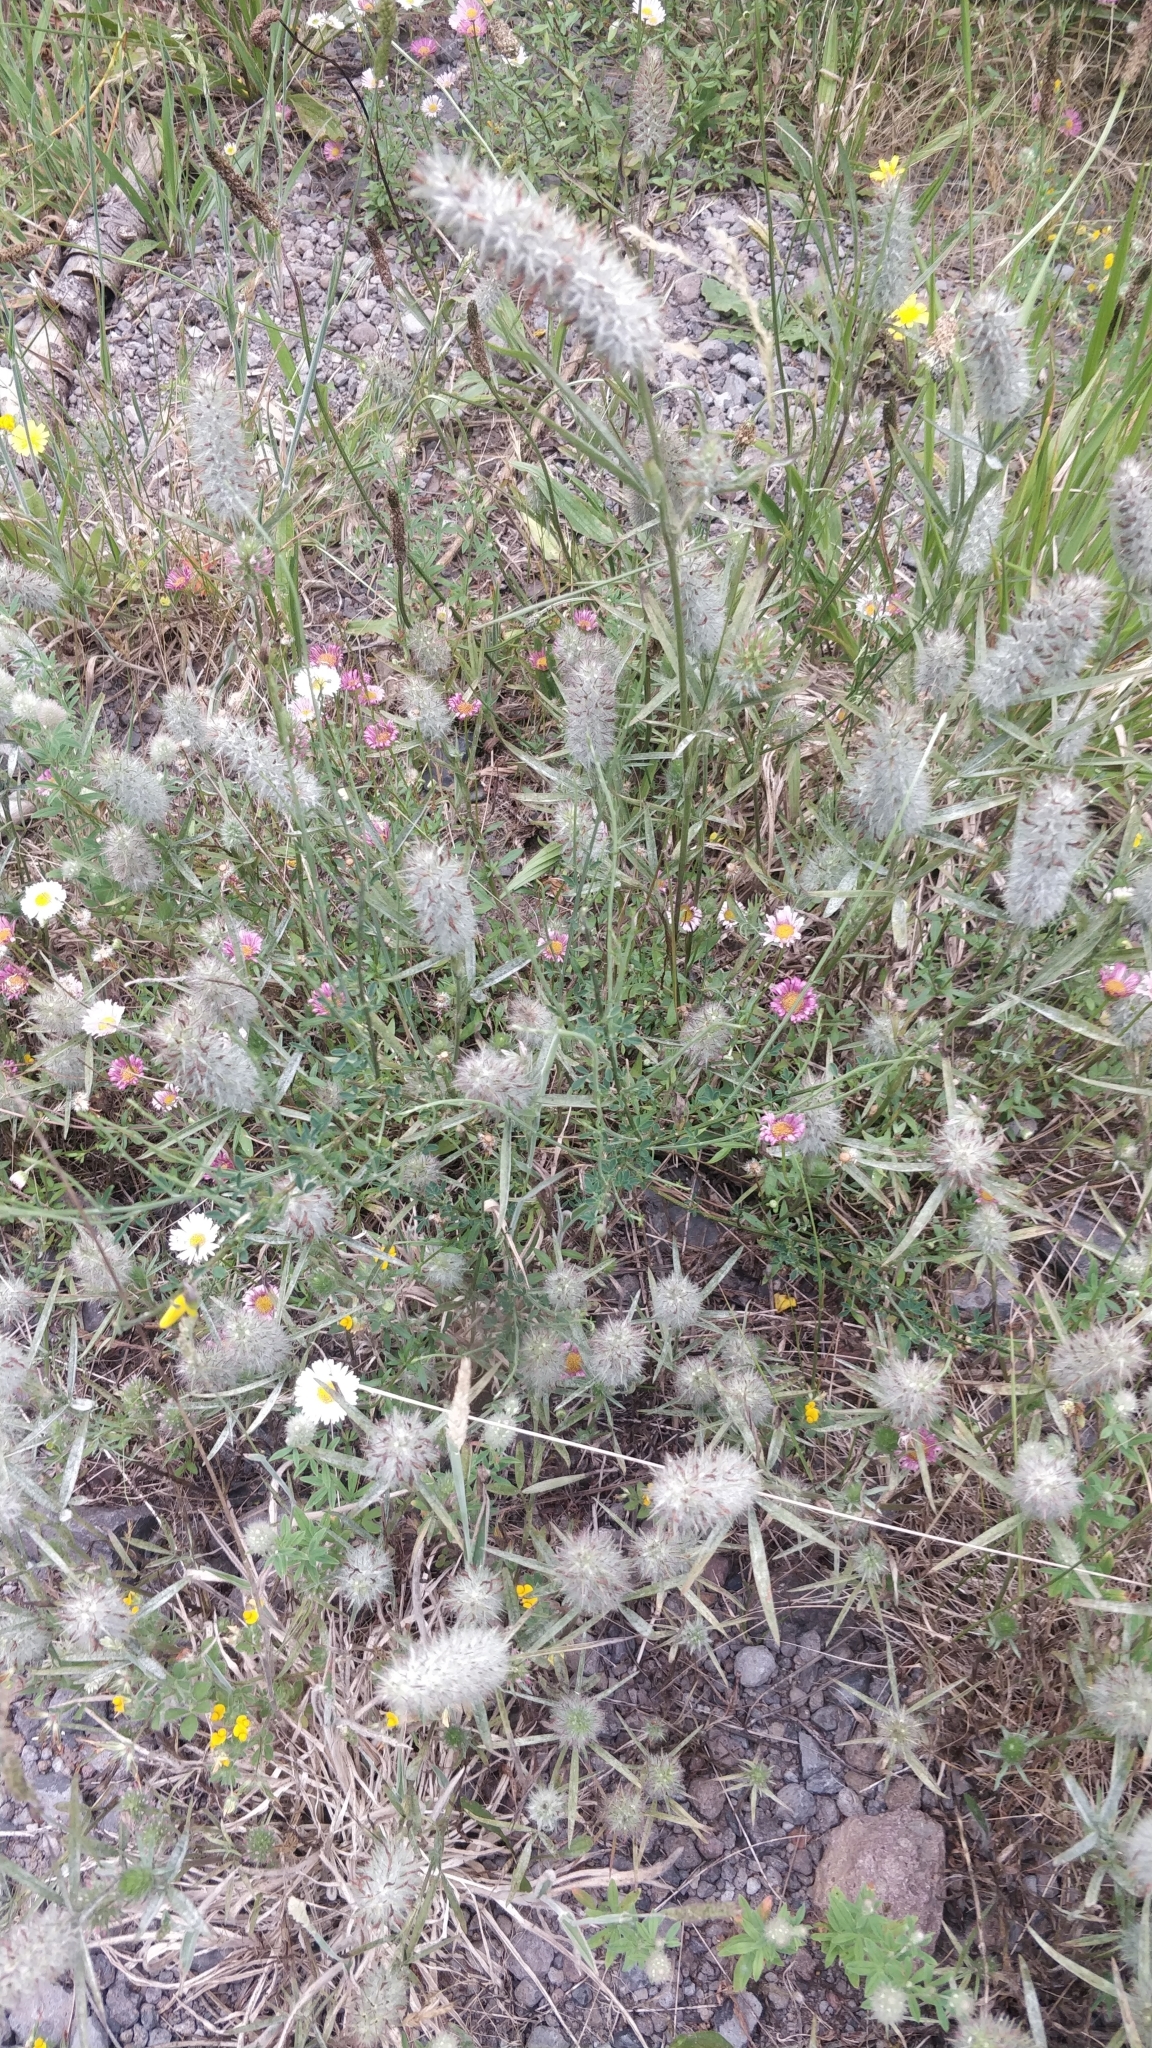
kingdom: Plantae
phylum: Tracheophyta
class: Magnoliopsida
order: Fabales
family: Fabaceae
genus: Trifolium
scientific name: Trifolium angustifolium
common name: Narrow clover
